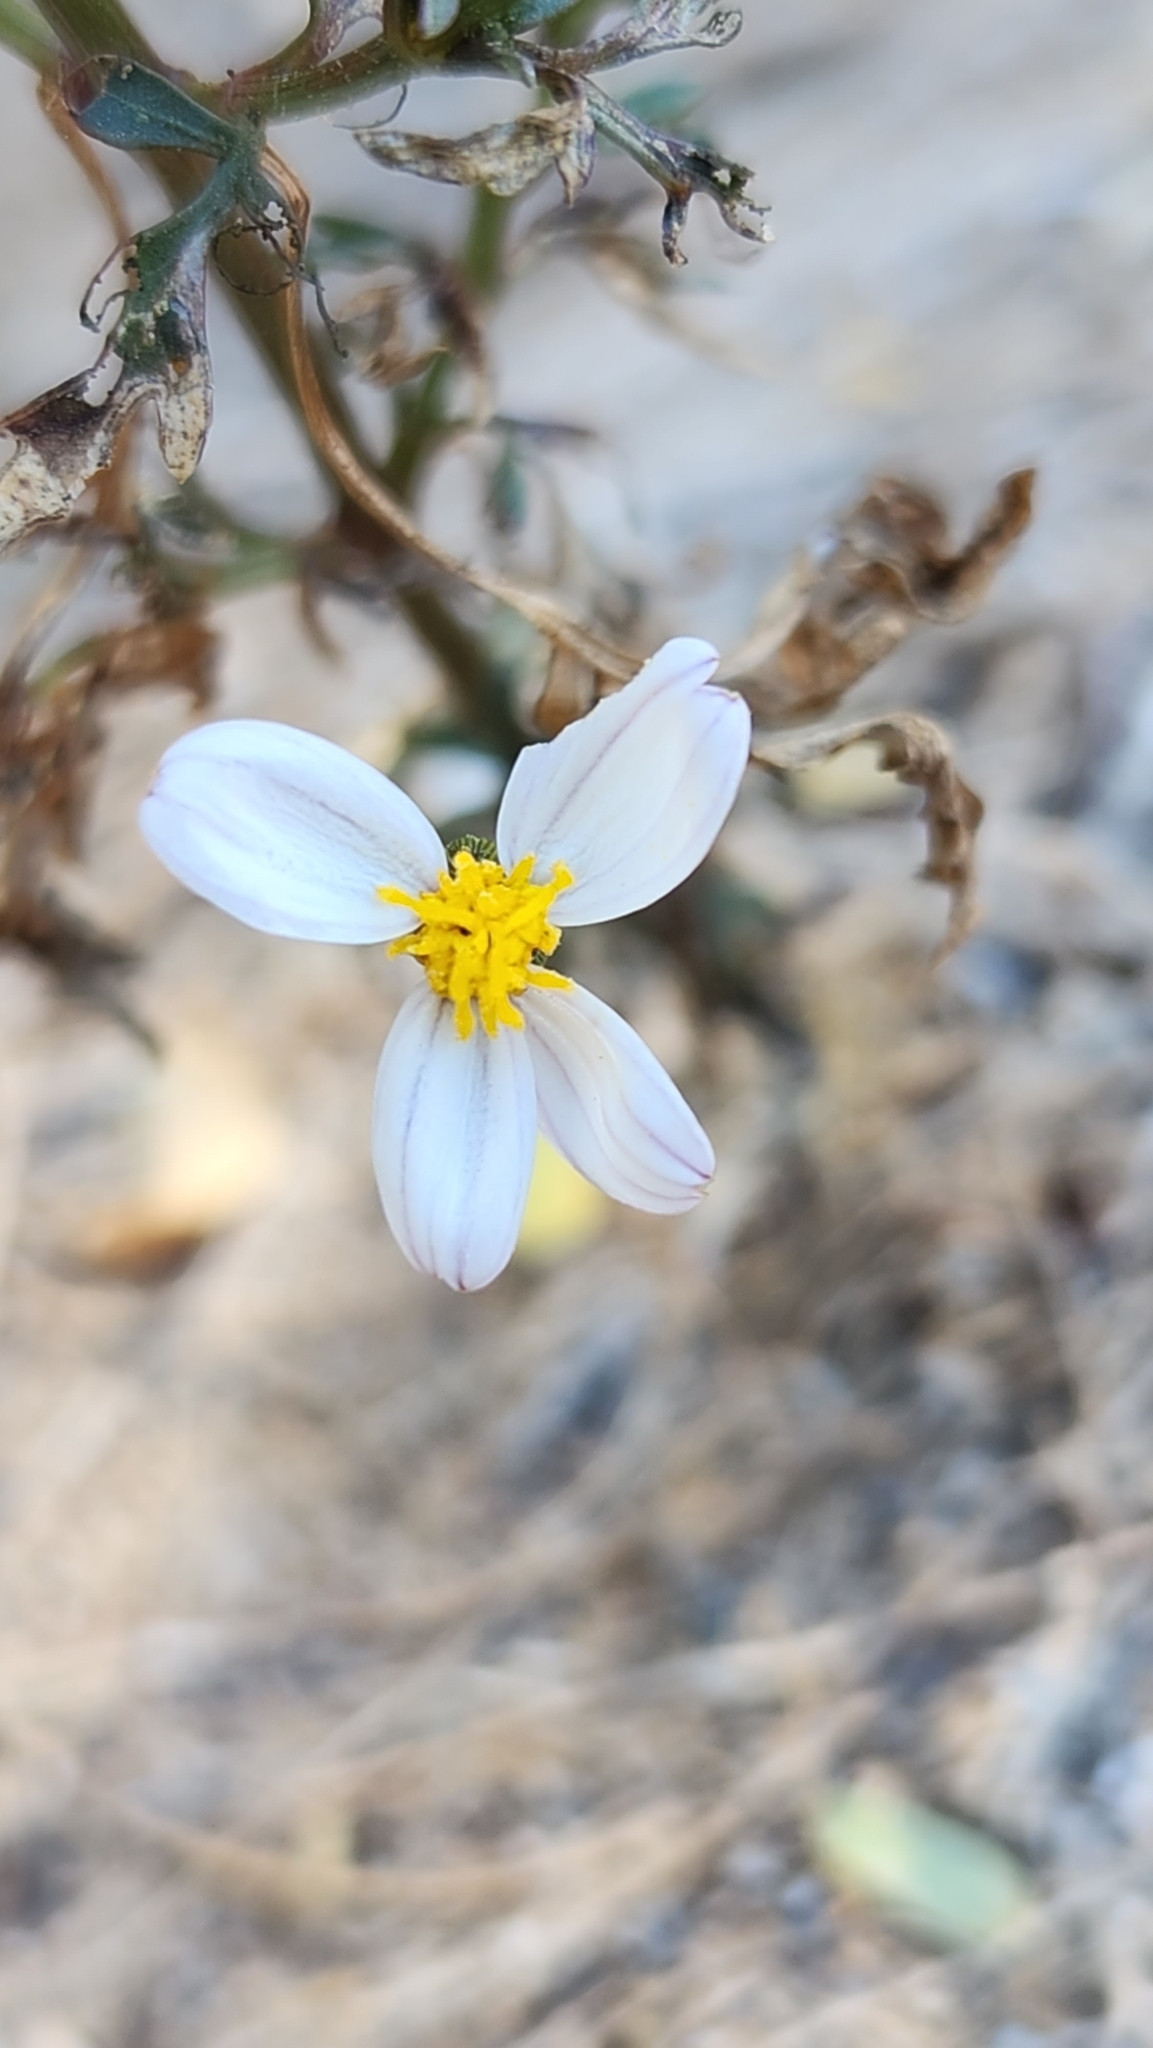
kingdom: Plantae
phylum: Tracheophyta
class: Magnoliopsida
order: Asterales
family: Asteraceae
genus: Coreocarpus
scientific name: Coreocarpus parthenioides
